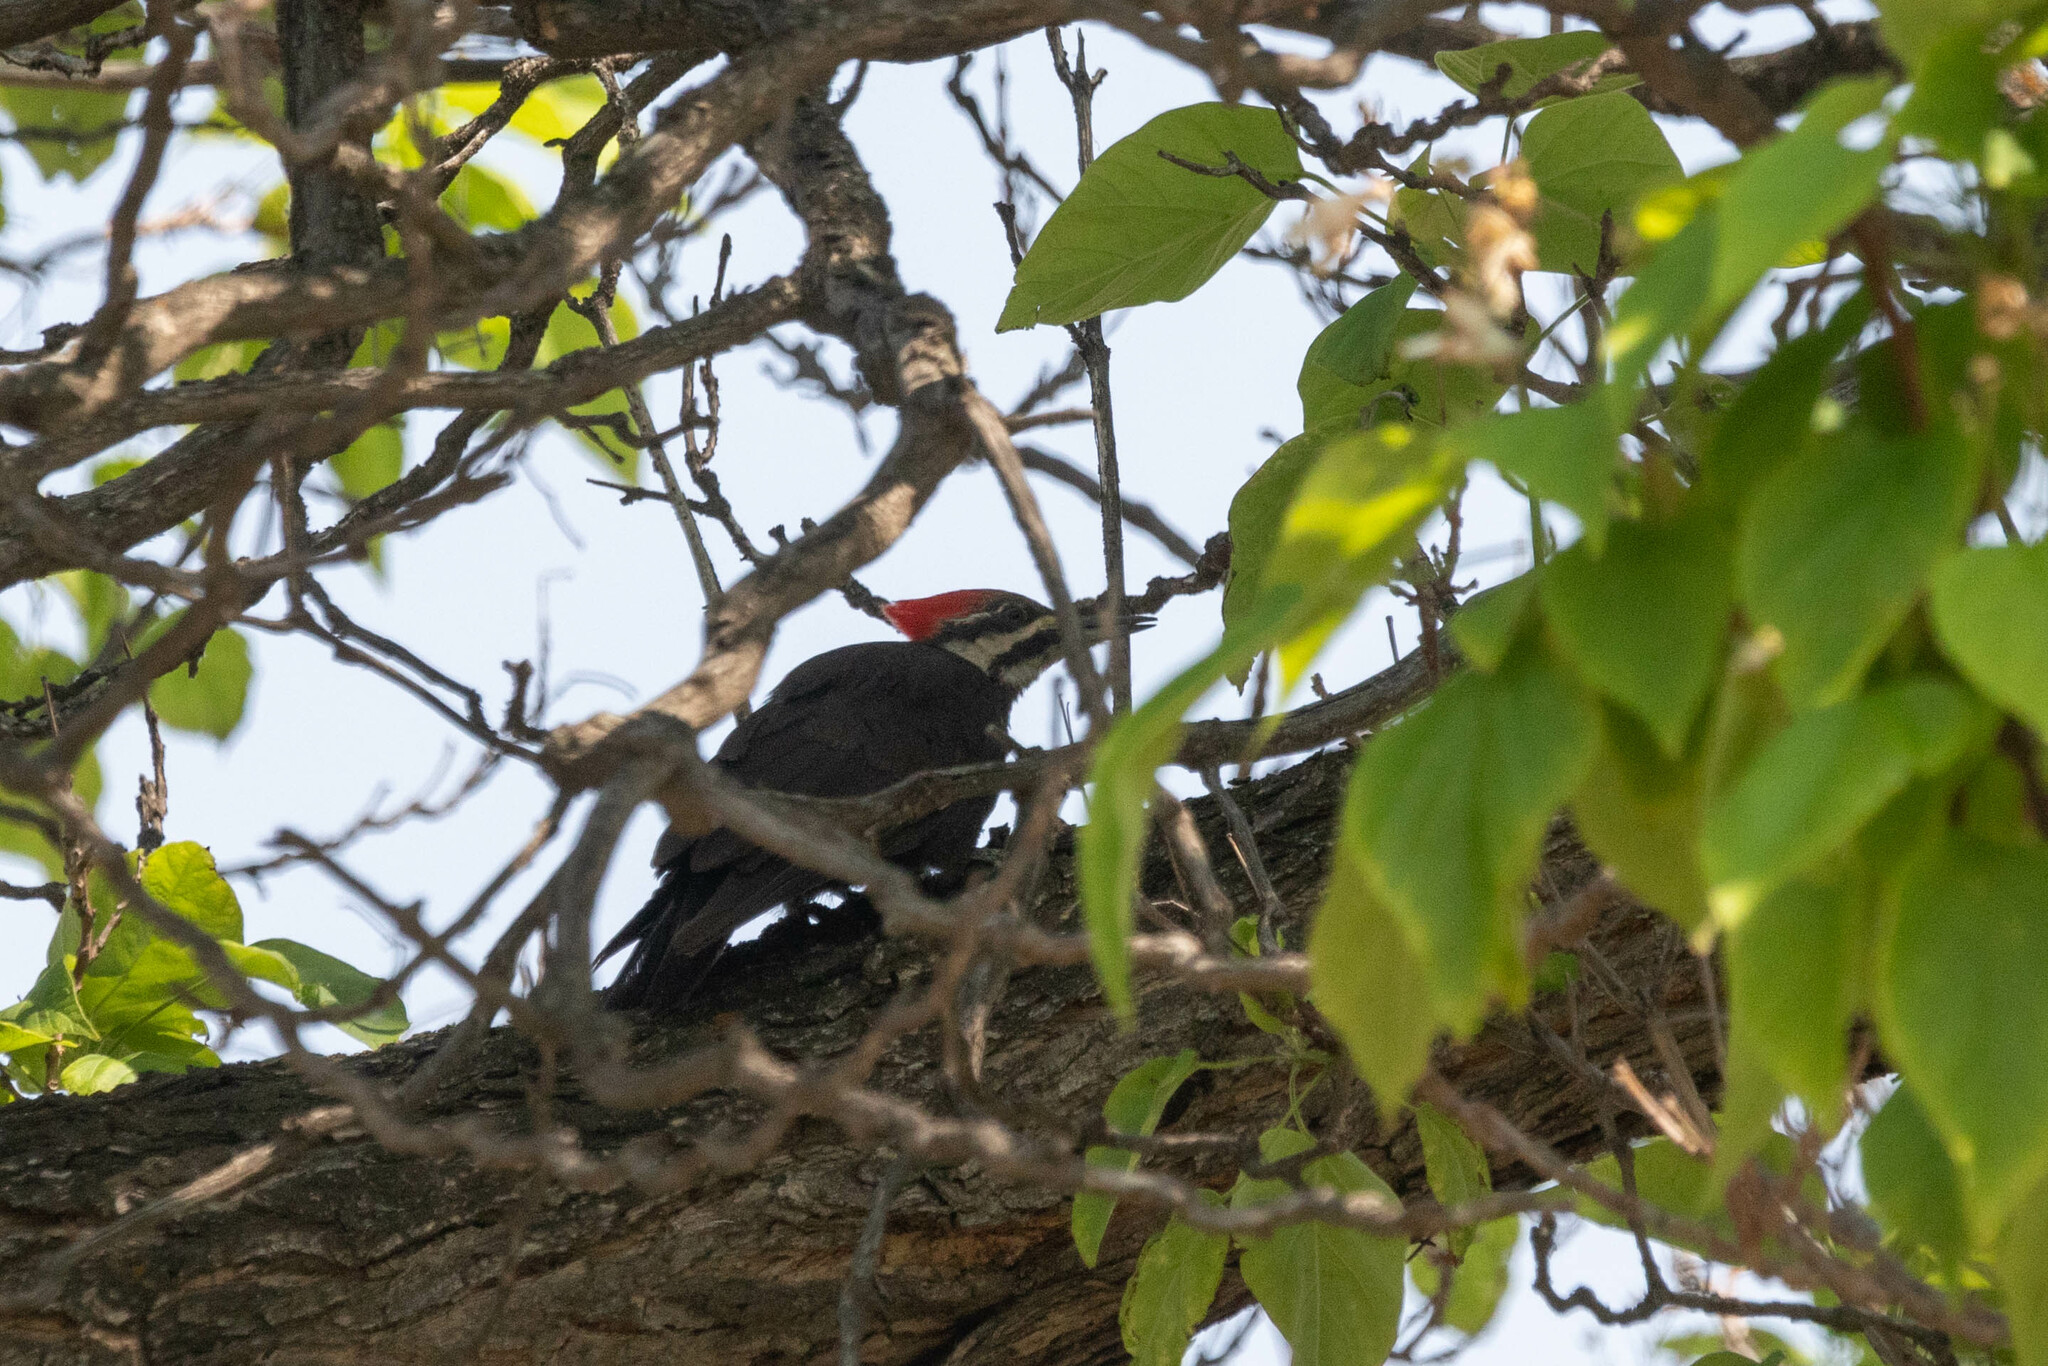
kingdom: Animalia
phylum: Chordata
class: Aves
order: Piciformes
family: Picidae
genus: Dryocopus
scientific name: Dryocopus pileatus
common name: Pileated woodpecker
